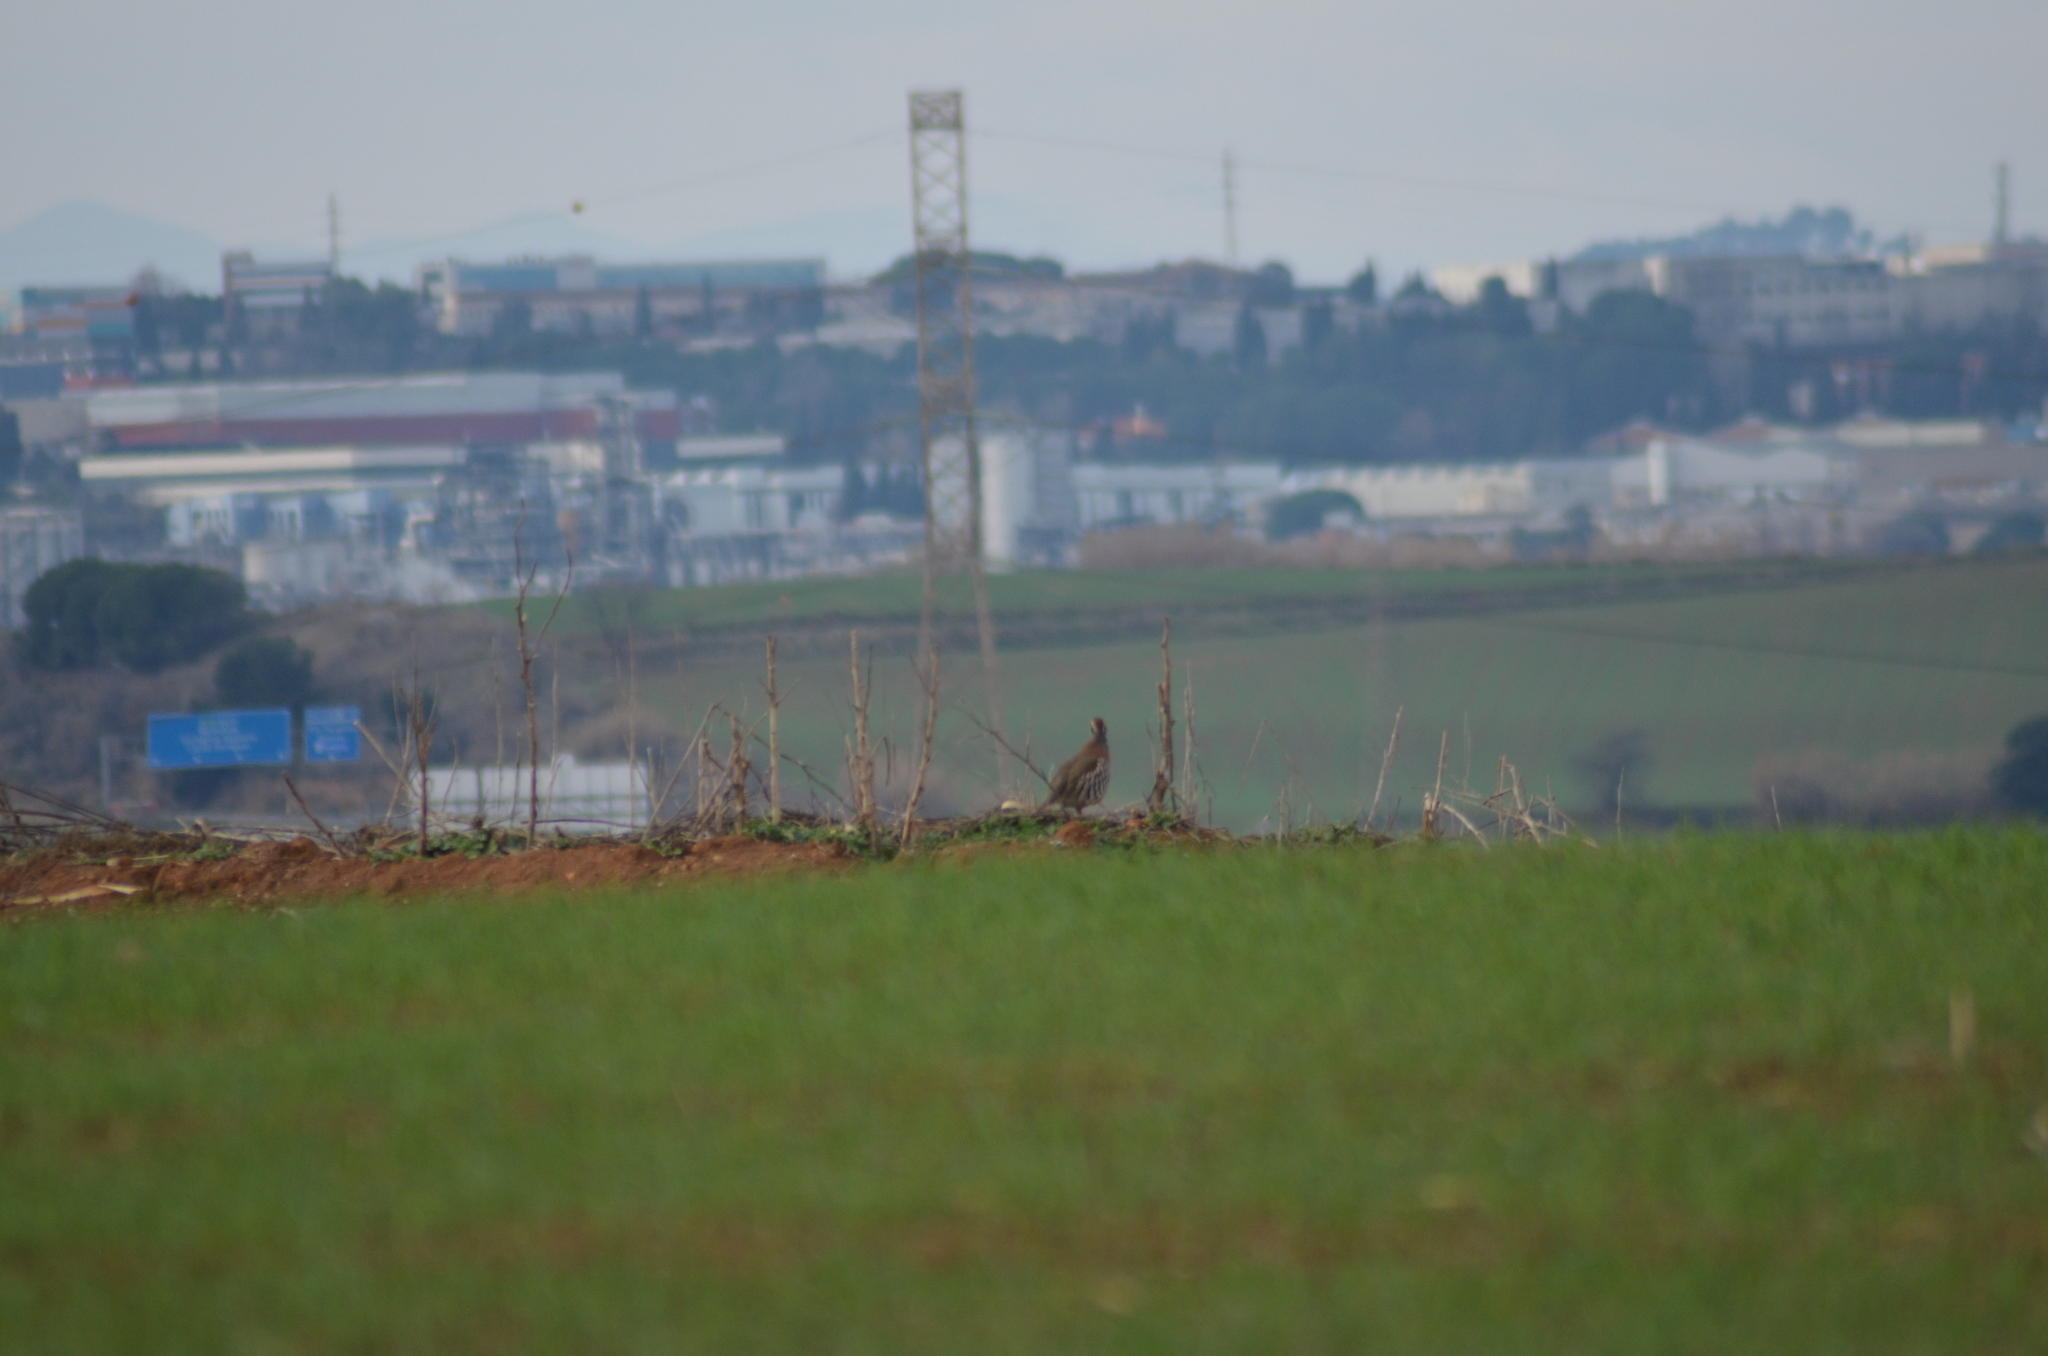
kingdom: Animalia
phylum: Chordata
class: Aves
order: Galliformes
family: Phasianidae
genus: Alectoris
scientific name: Alectoris rufa
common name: Red-legged partridge
